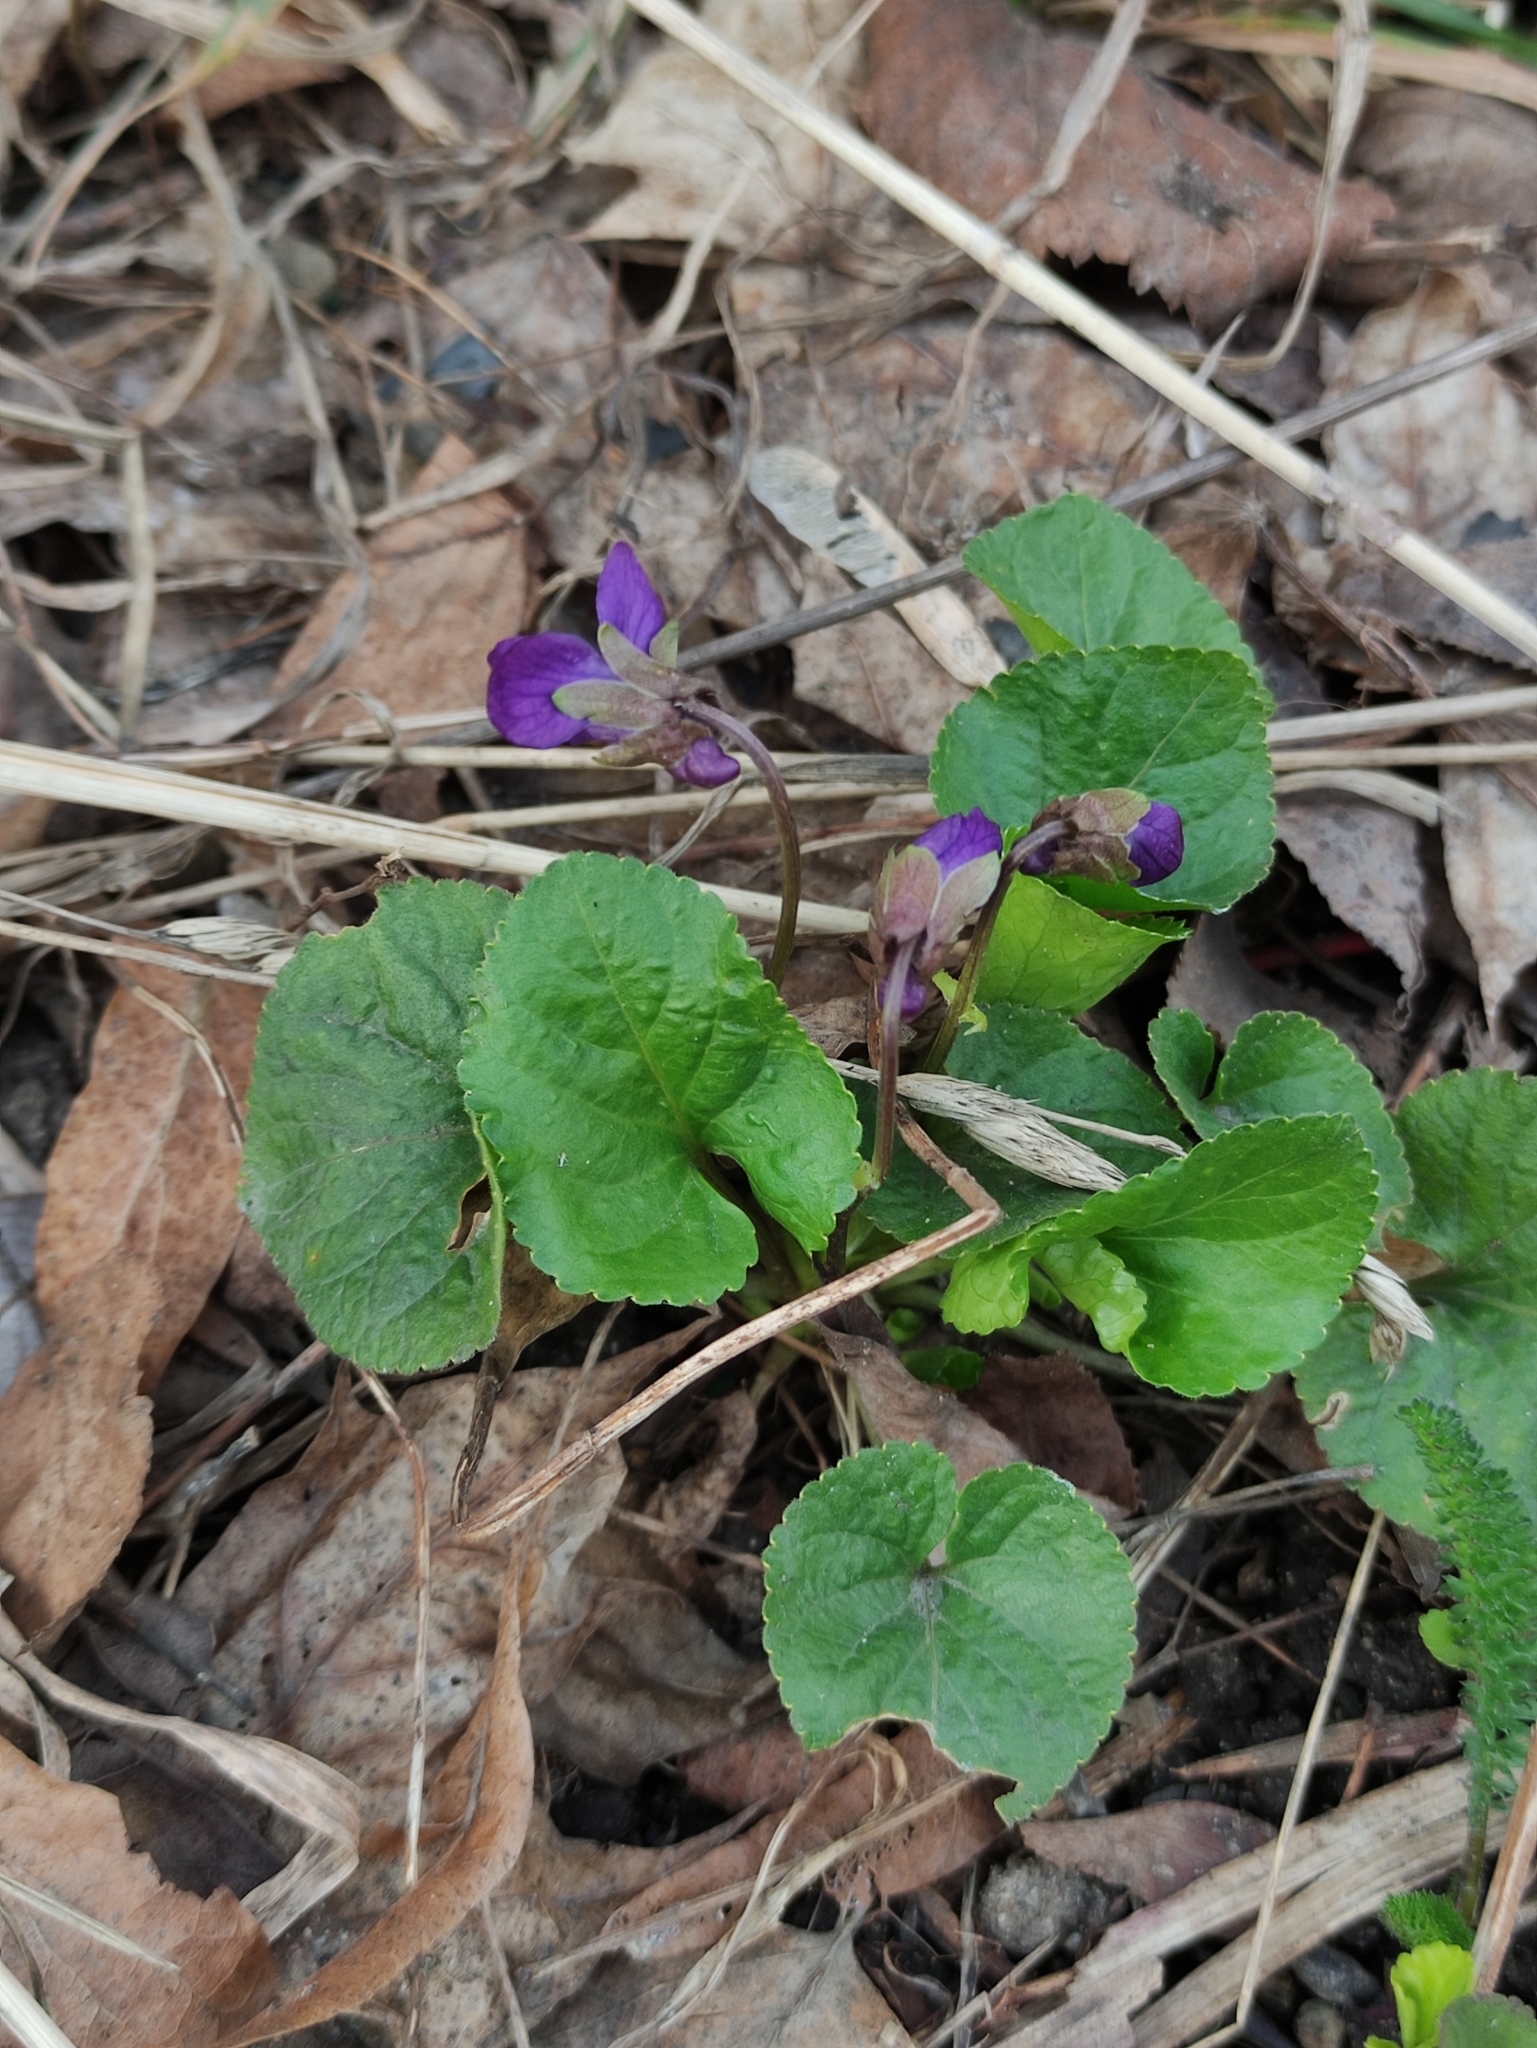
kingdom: Plantae
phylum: Tracheophyta
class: Magnoliopsida
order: Malpighiales
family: Violaceae
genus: Viola
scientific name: Viola odorata
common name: Sweet violet
